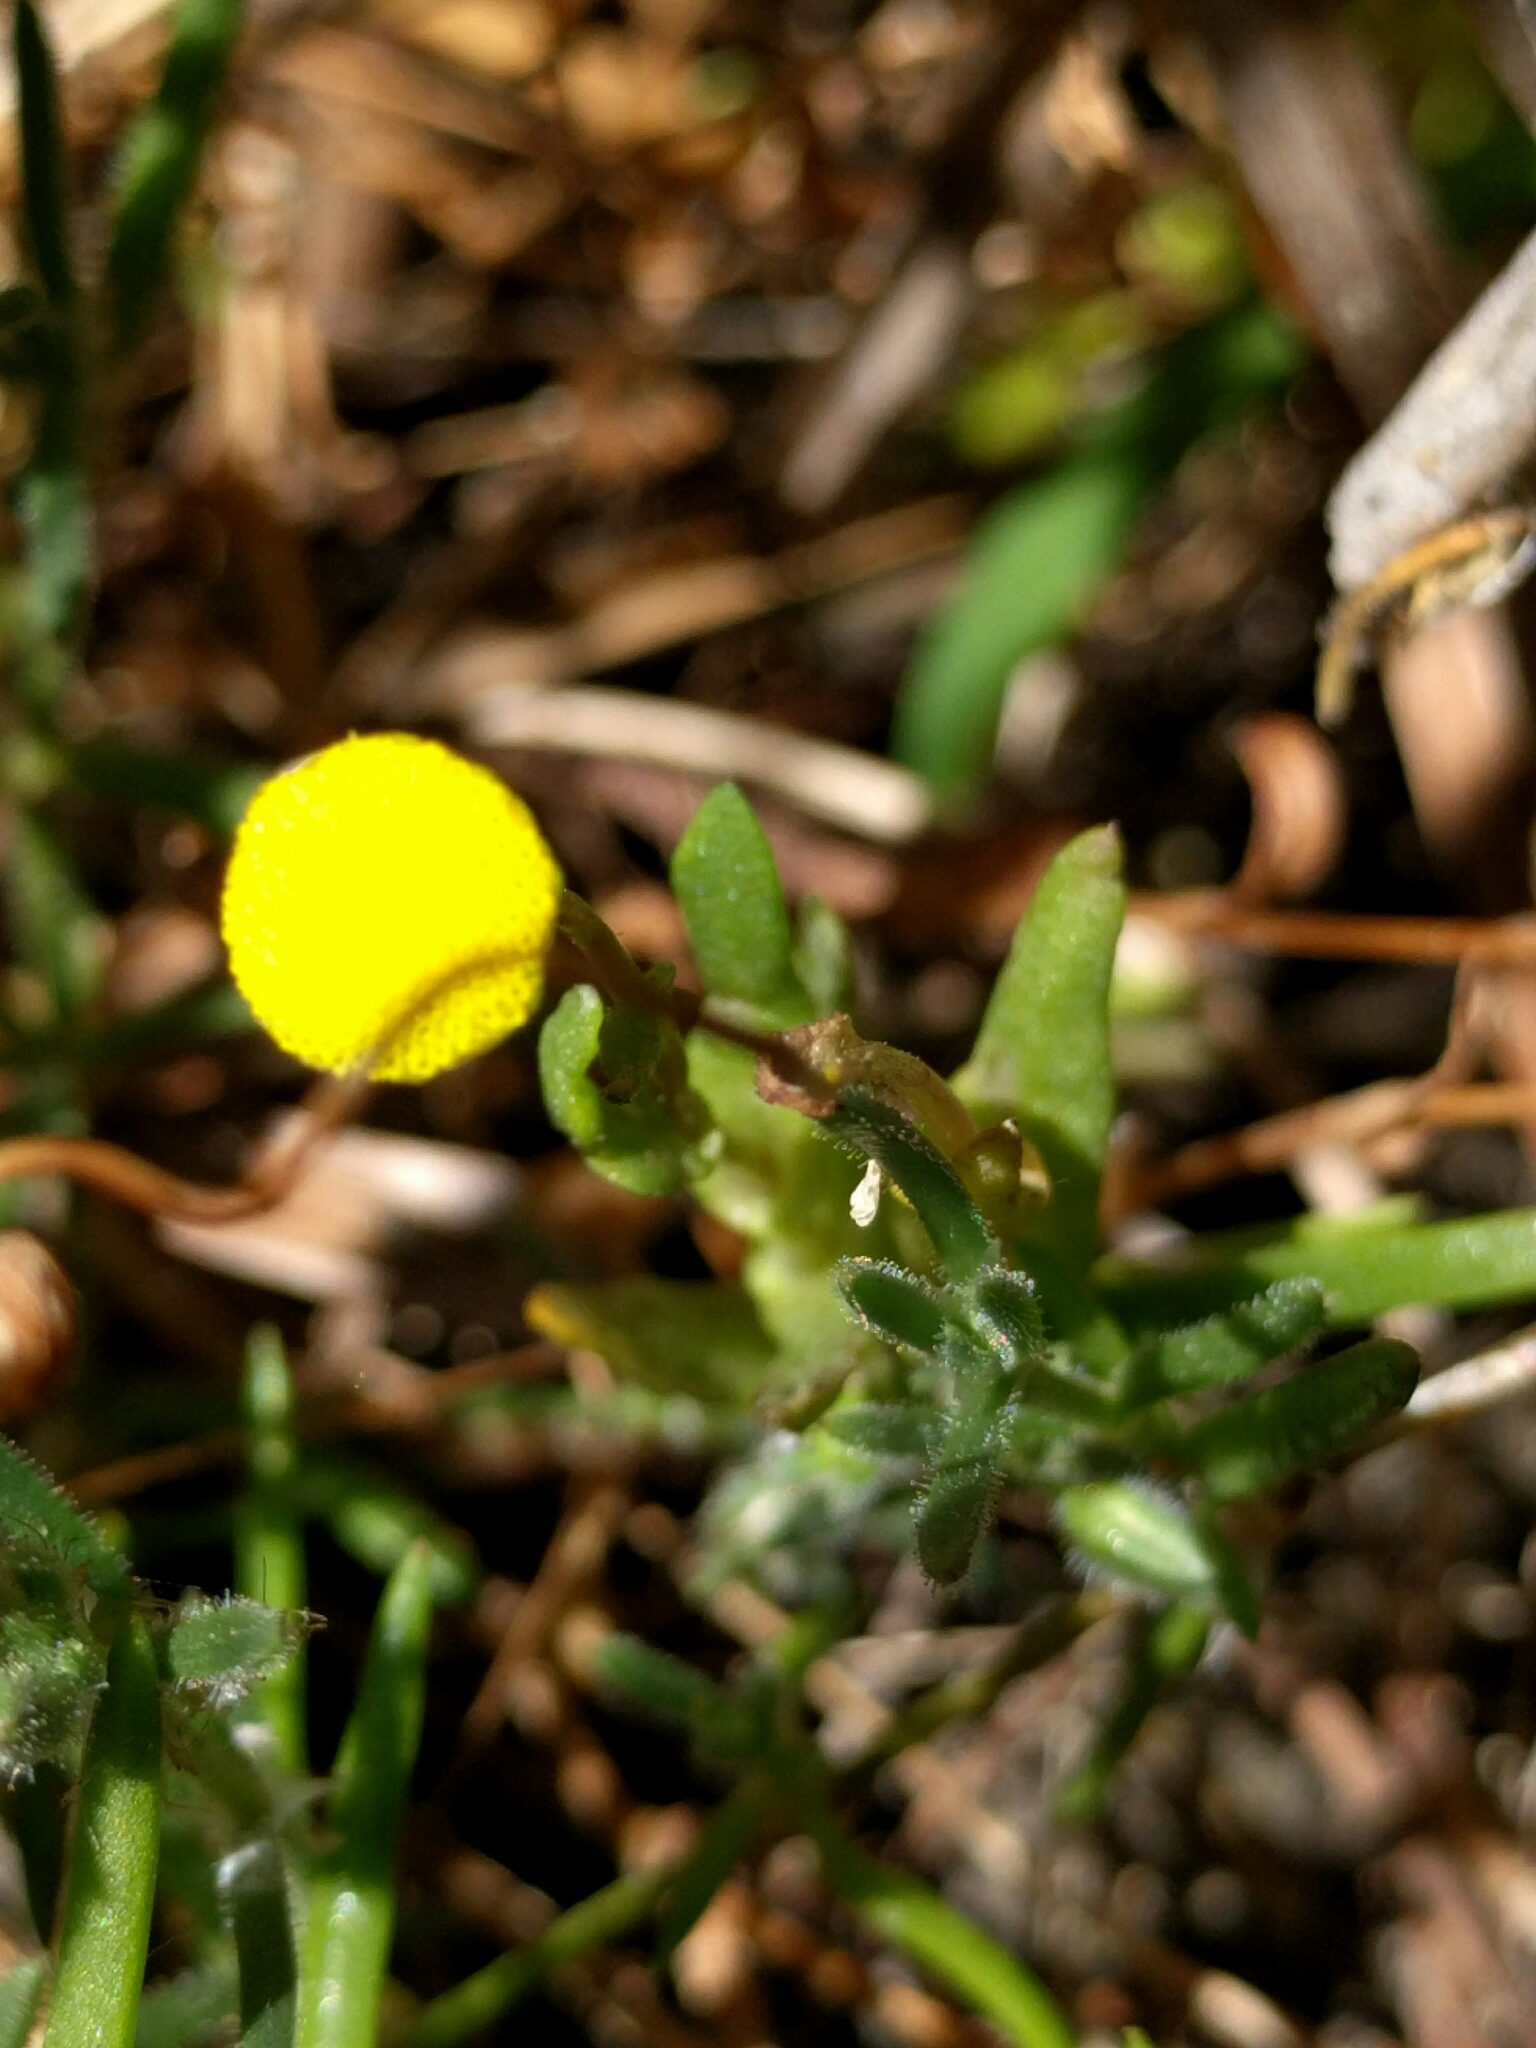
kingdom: Plantae
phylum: Tracheophyta
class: Magnoliopsida
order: Asterales
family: Asteraceae
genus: Cotula
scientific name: Cotula coronopifolia
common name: Buttonweed
